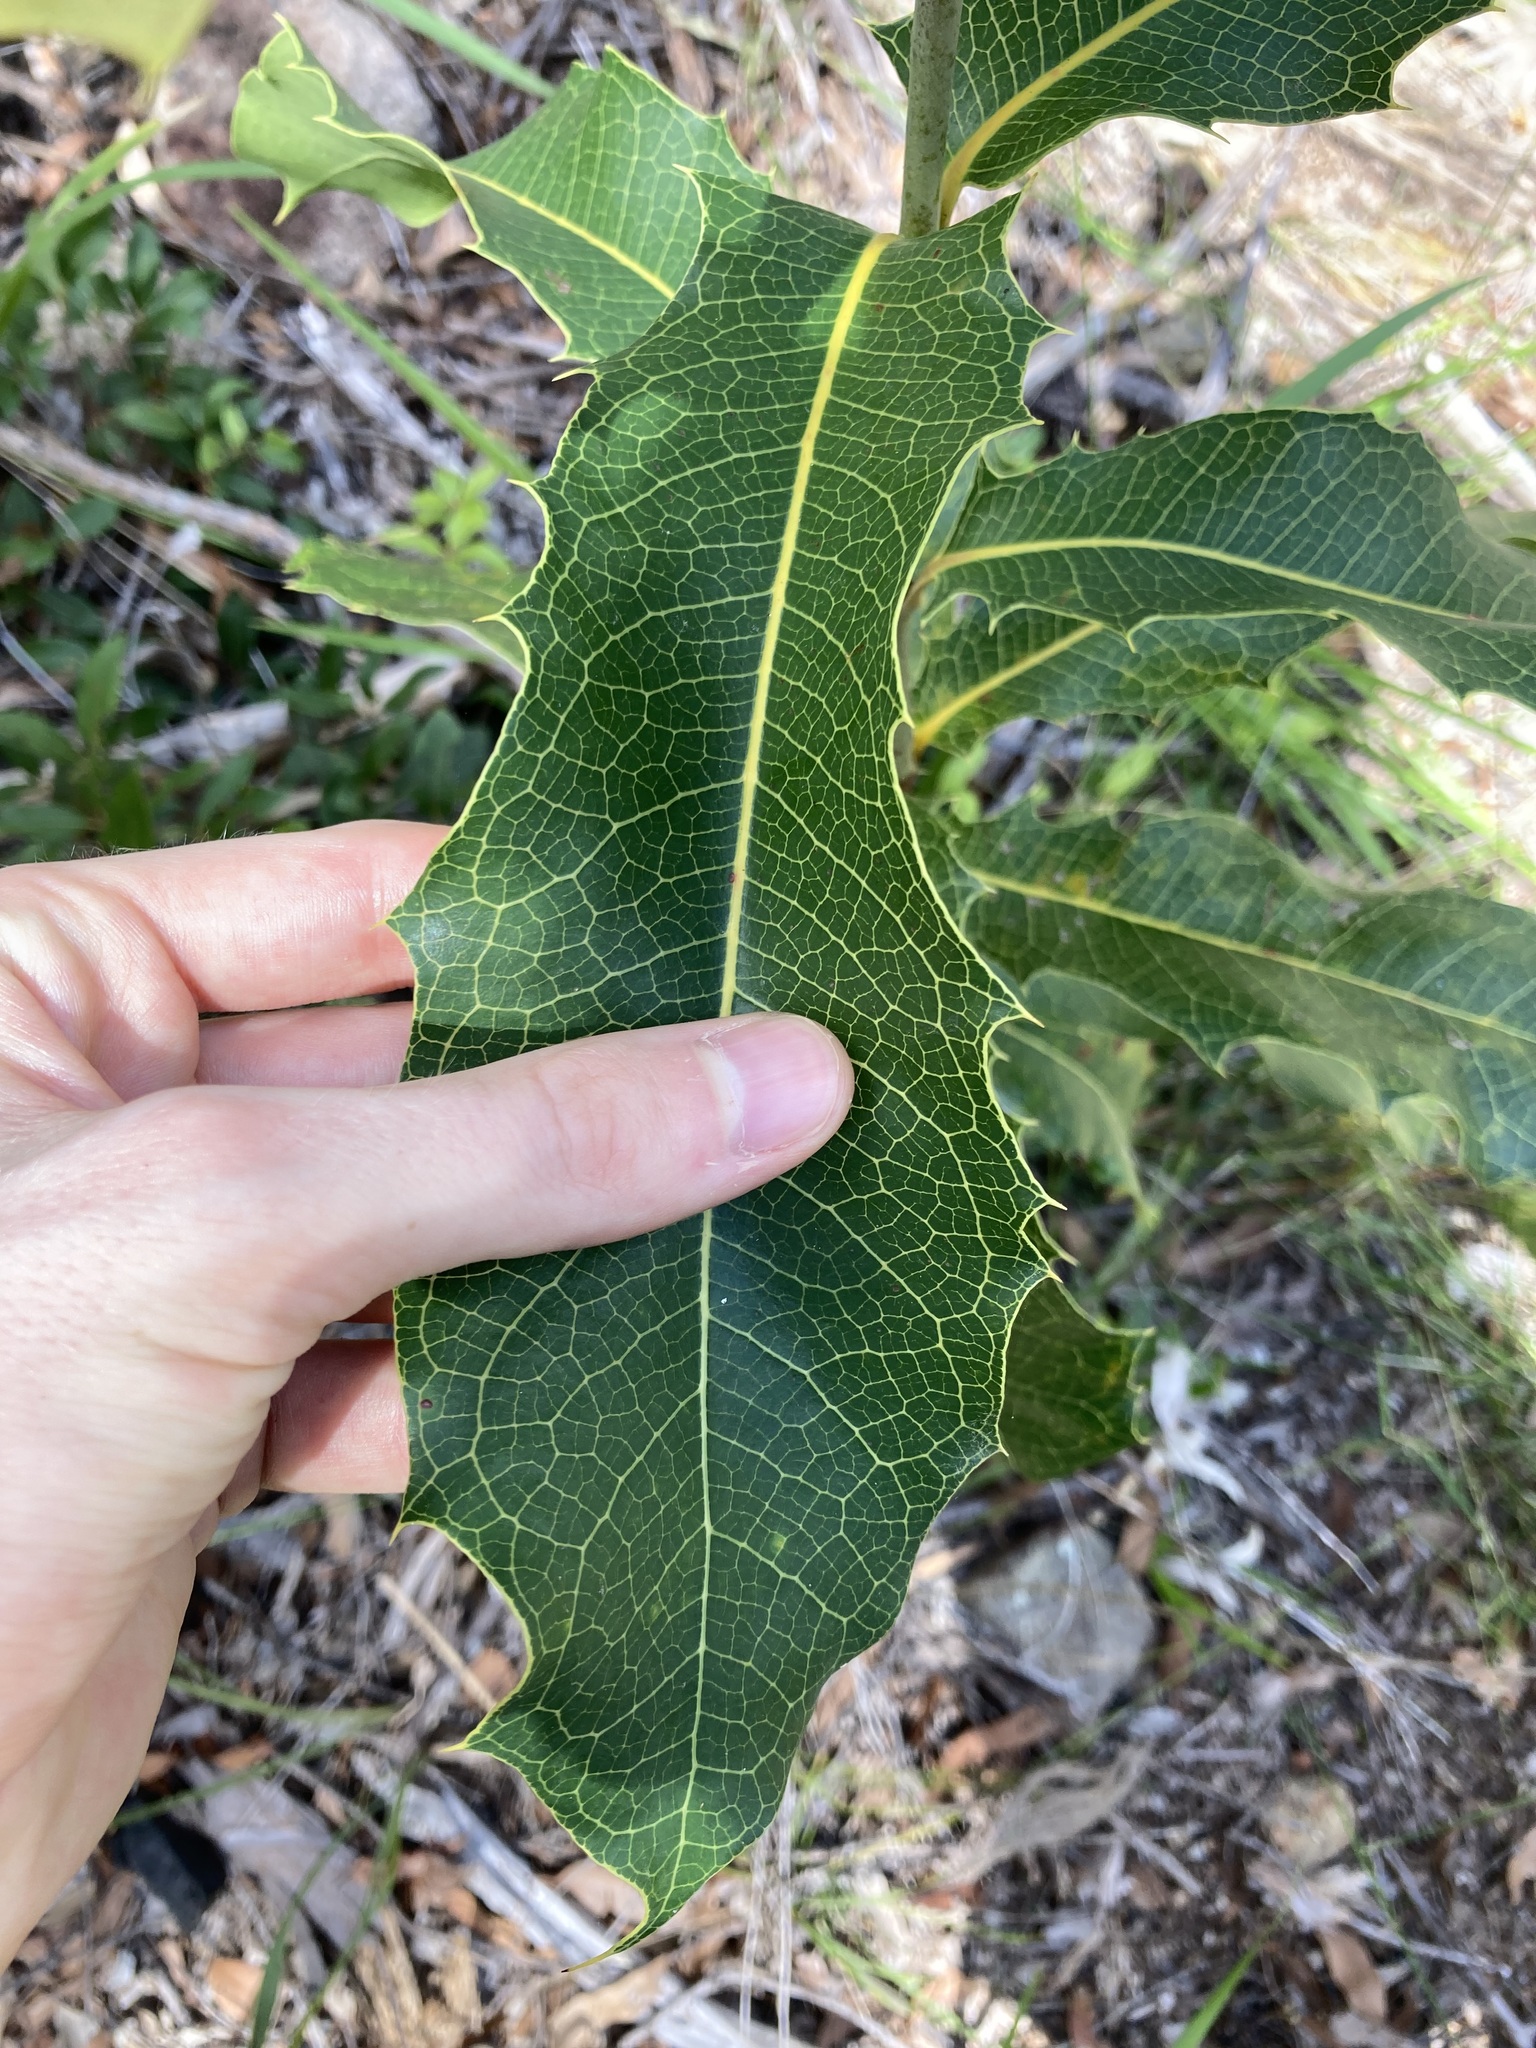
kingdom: Plantae
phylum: Tracheophyta
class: Magnoliopsida
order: Proteales
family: Proteaceae
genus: Xylomelum
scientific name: Xylomelum pyriforme
